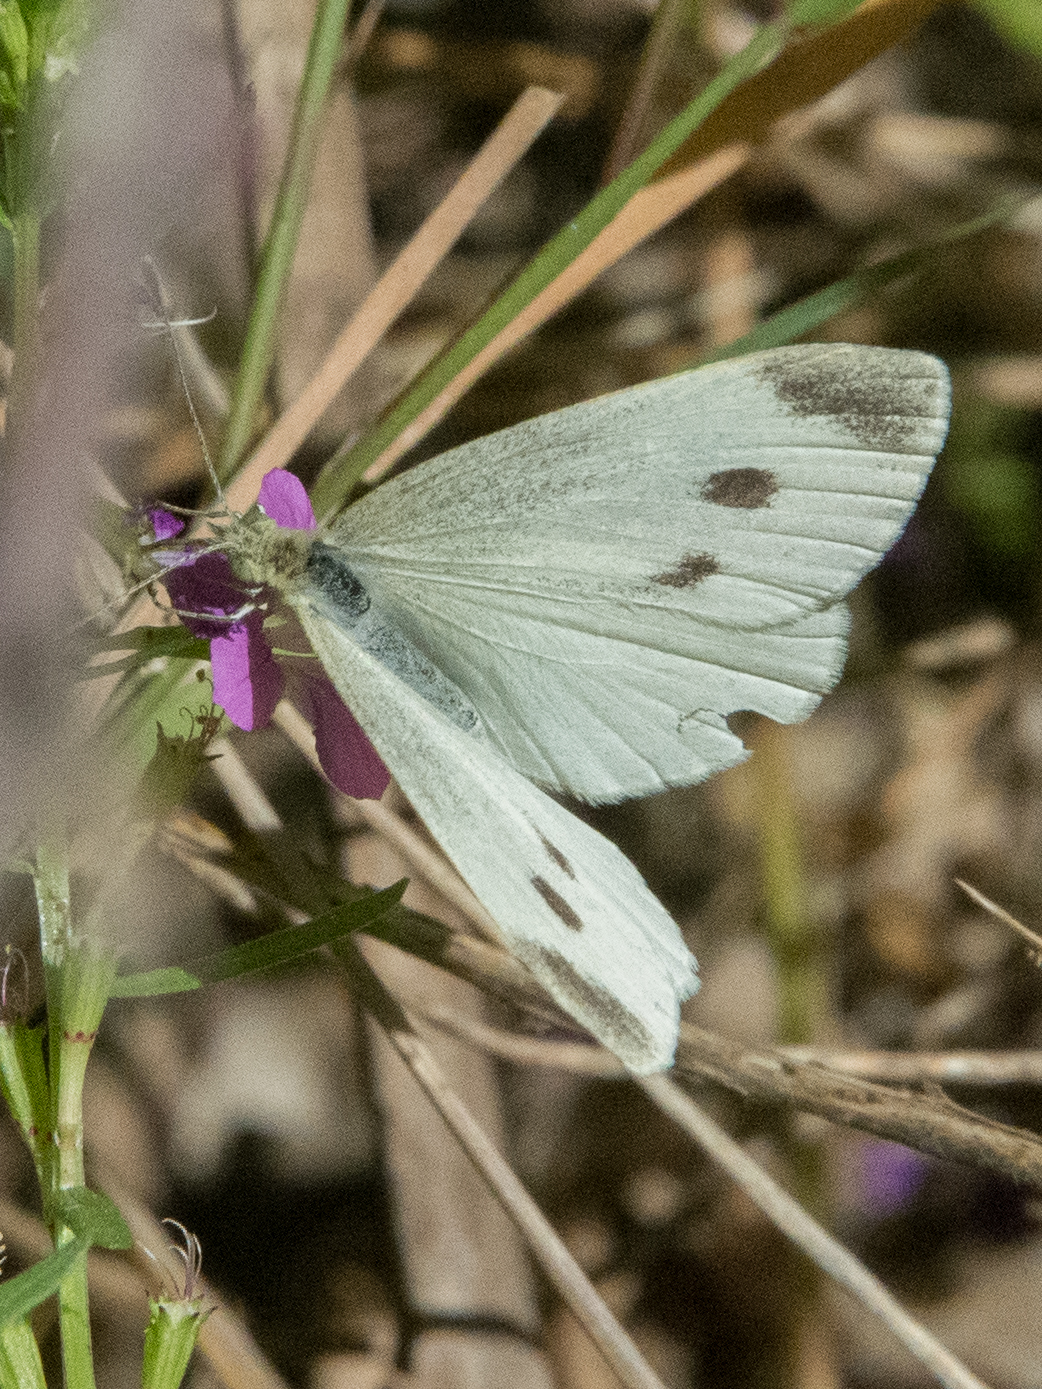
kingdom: Animalia
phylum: Arthropoda
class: Insecta
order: Lepidoptera
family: Pieridae
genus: Pieris
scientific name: Pieris rapae
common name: Small white
